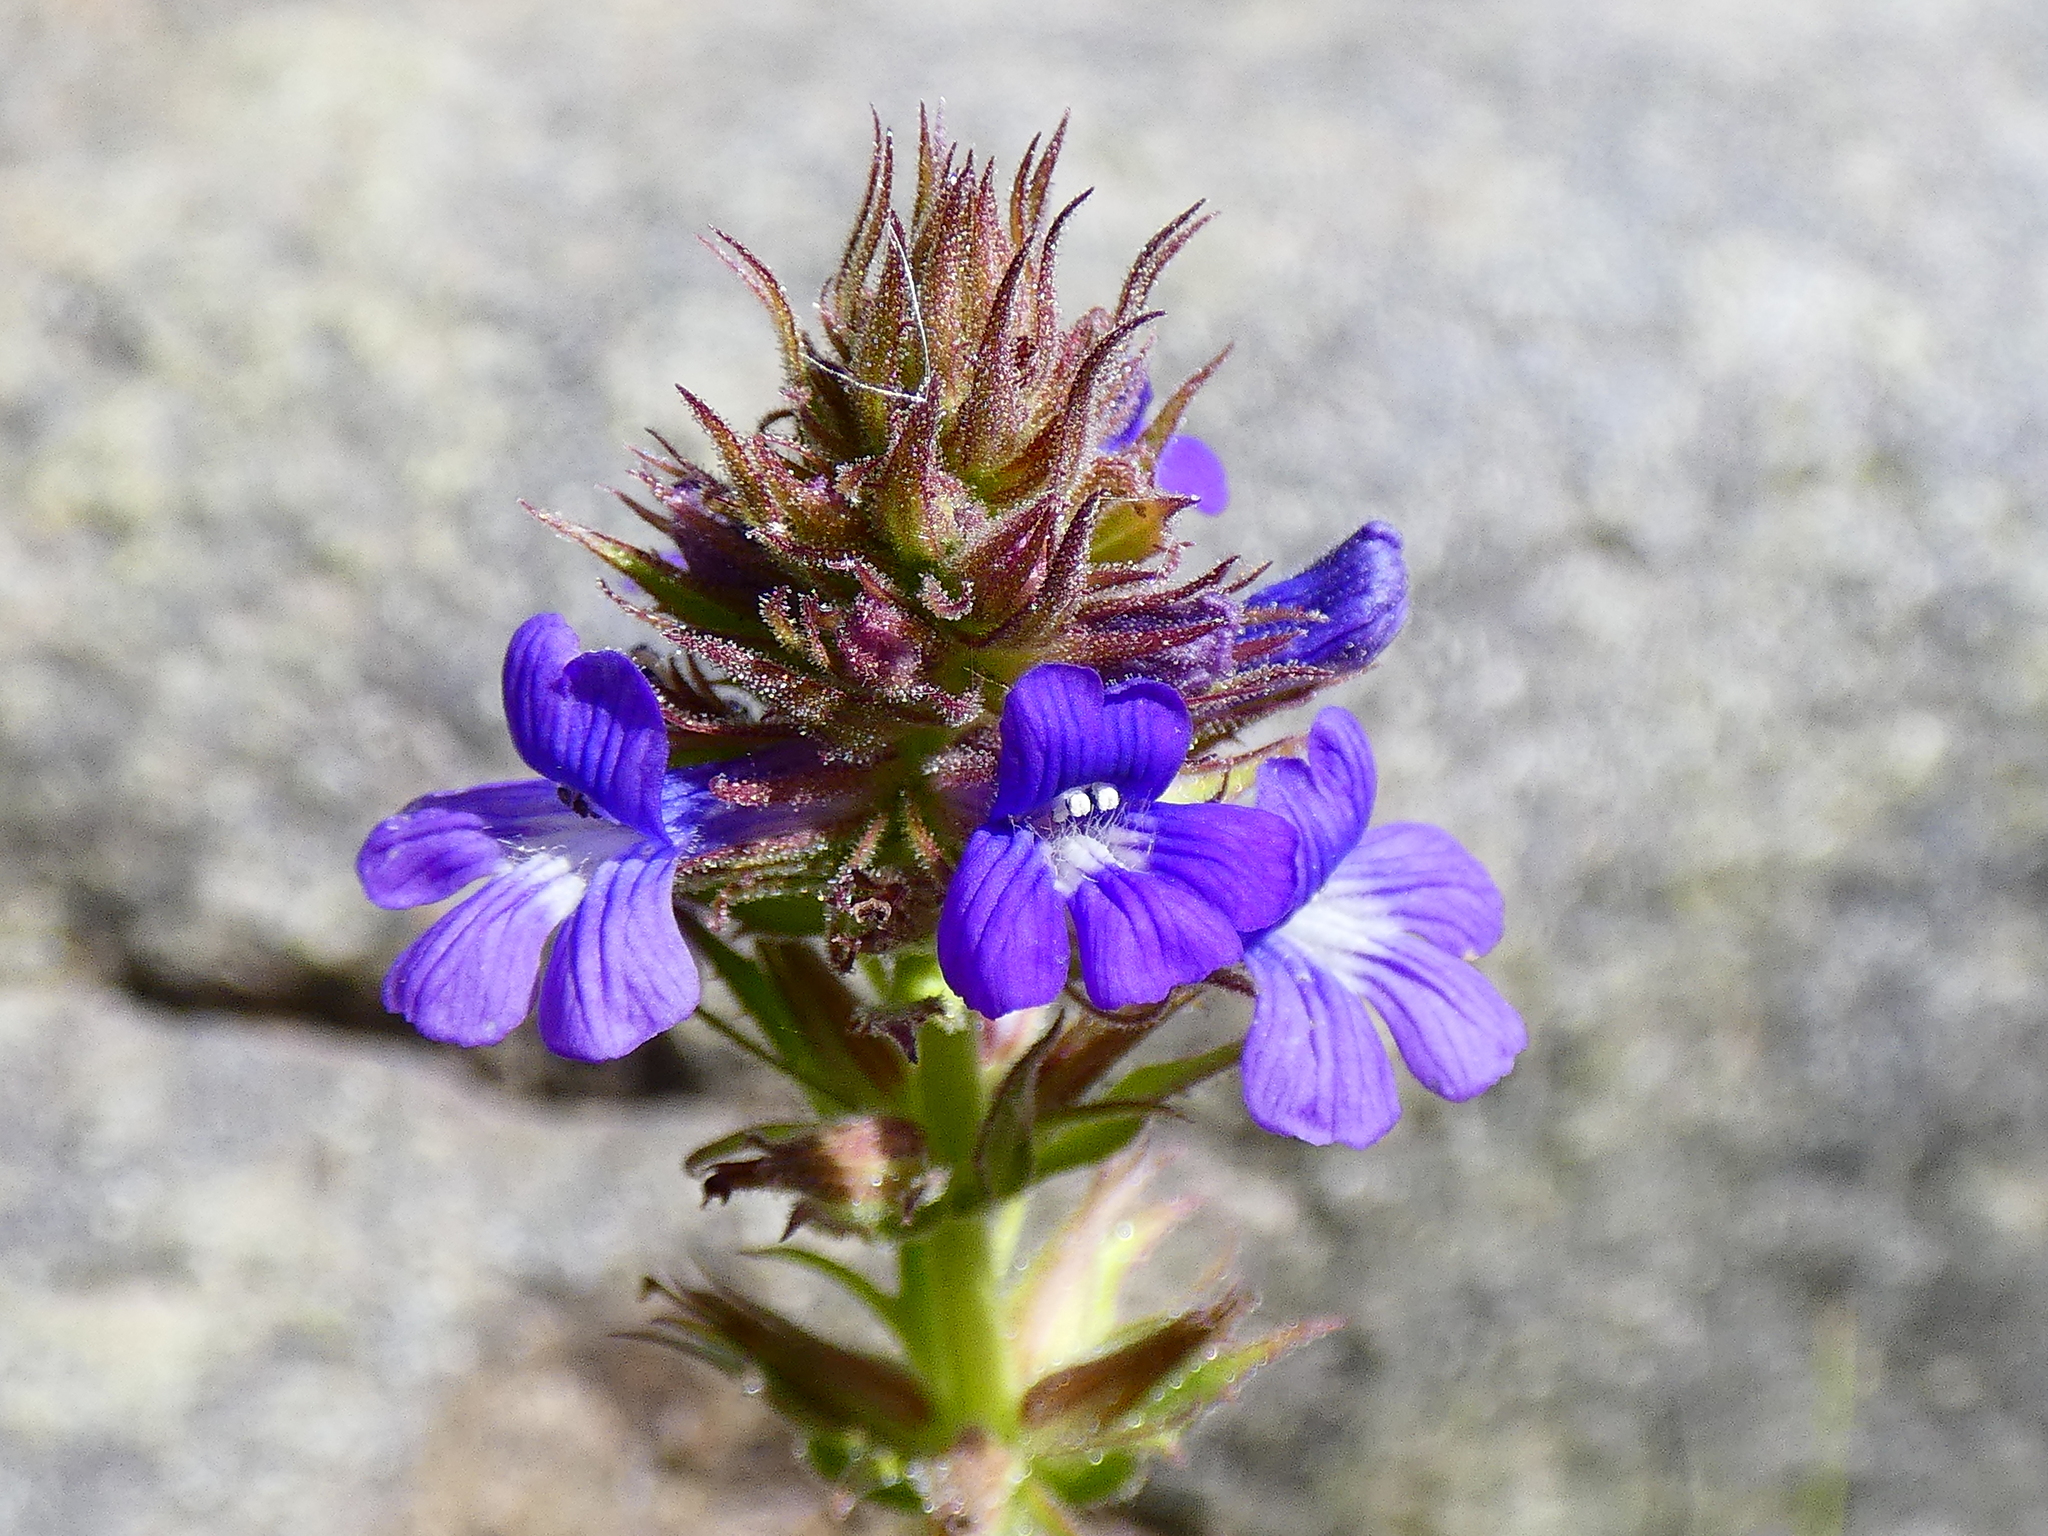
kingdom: Plantae
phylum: Tracheophyta
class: Magnoliopsida
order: Lamiales
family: Plantaginaceae
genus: Stemodia
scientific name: Stemodia durantifolia
